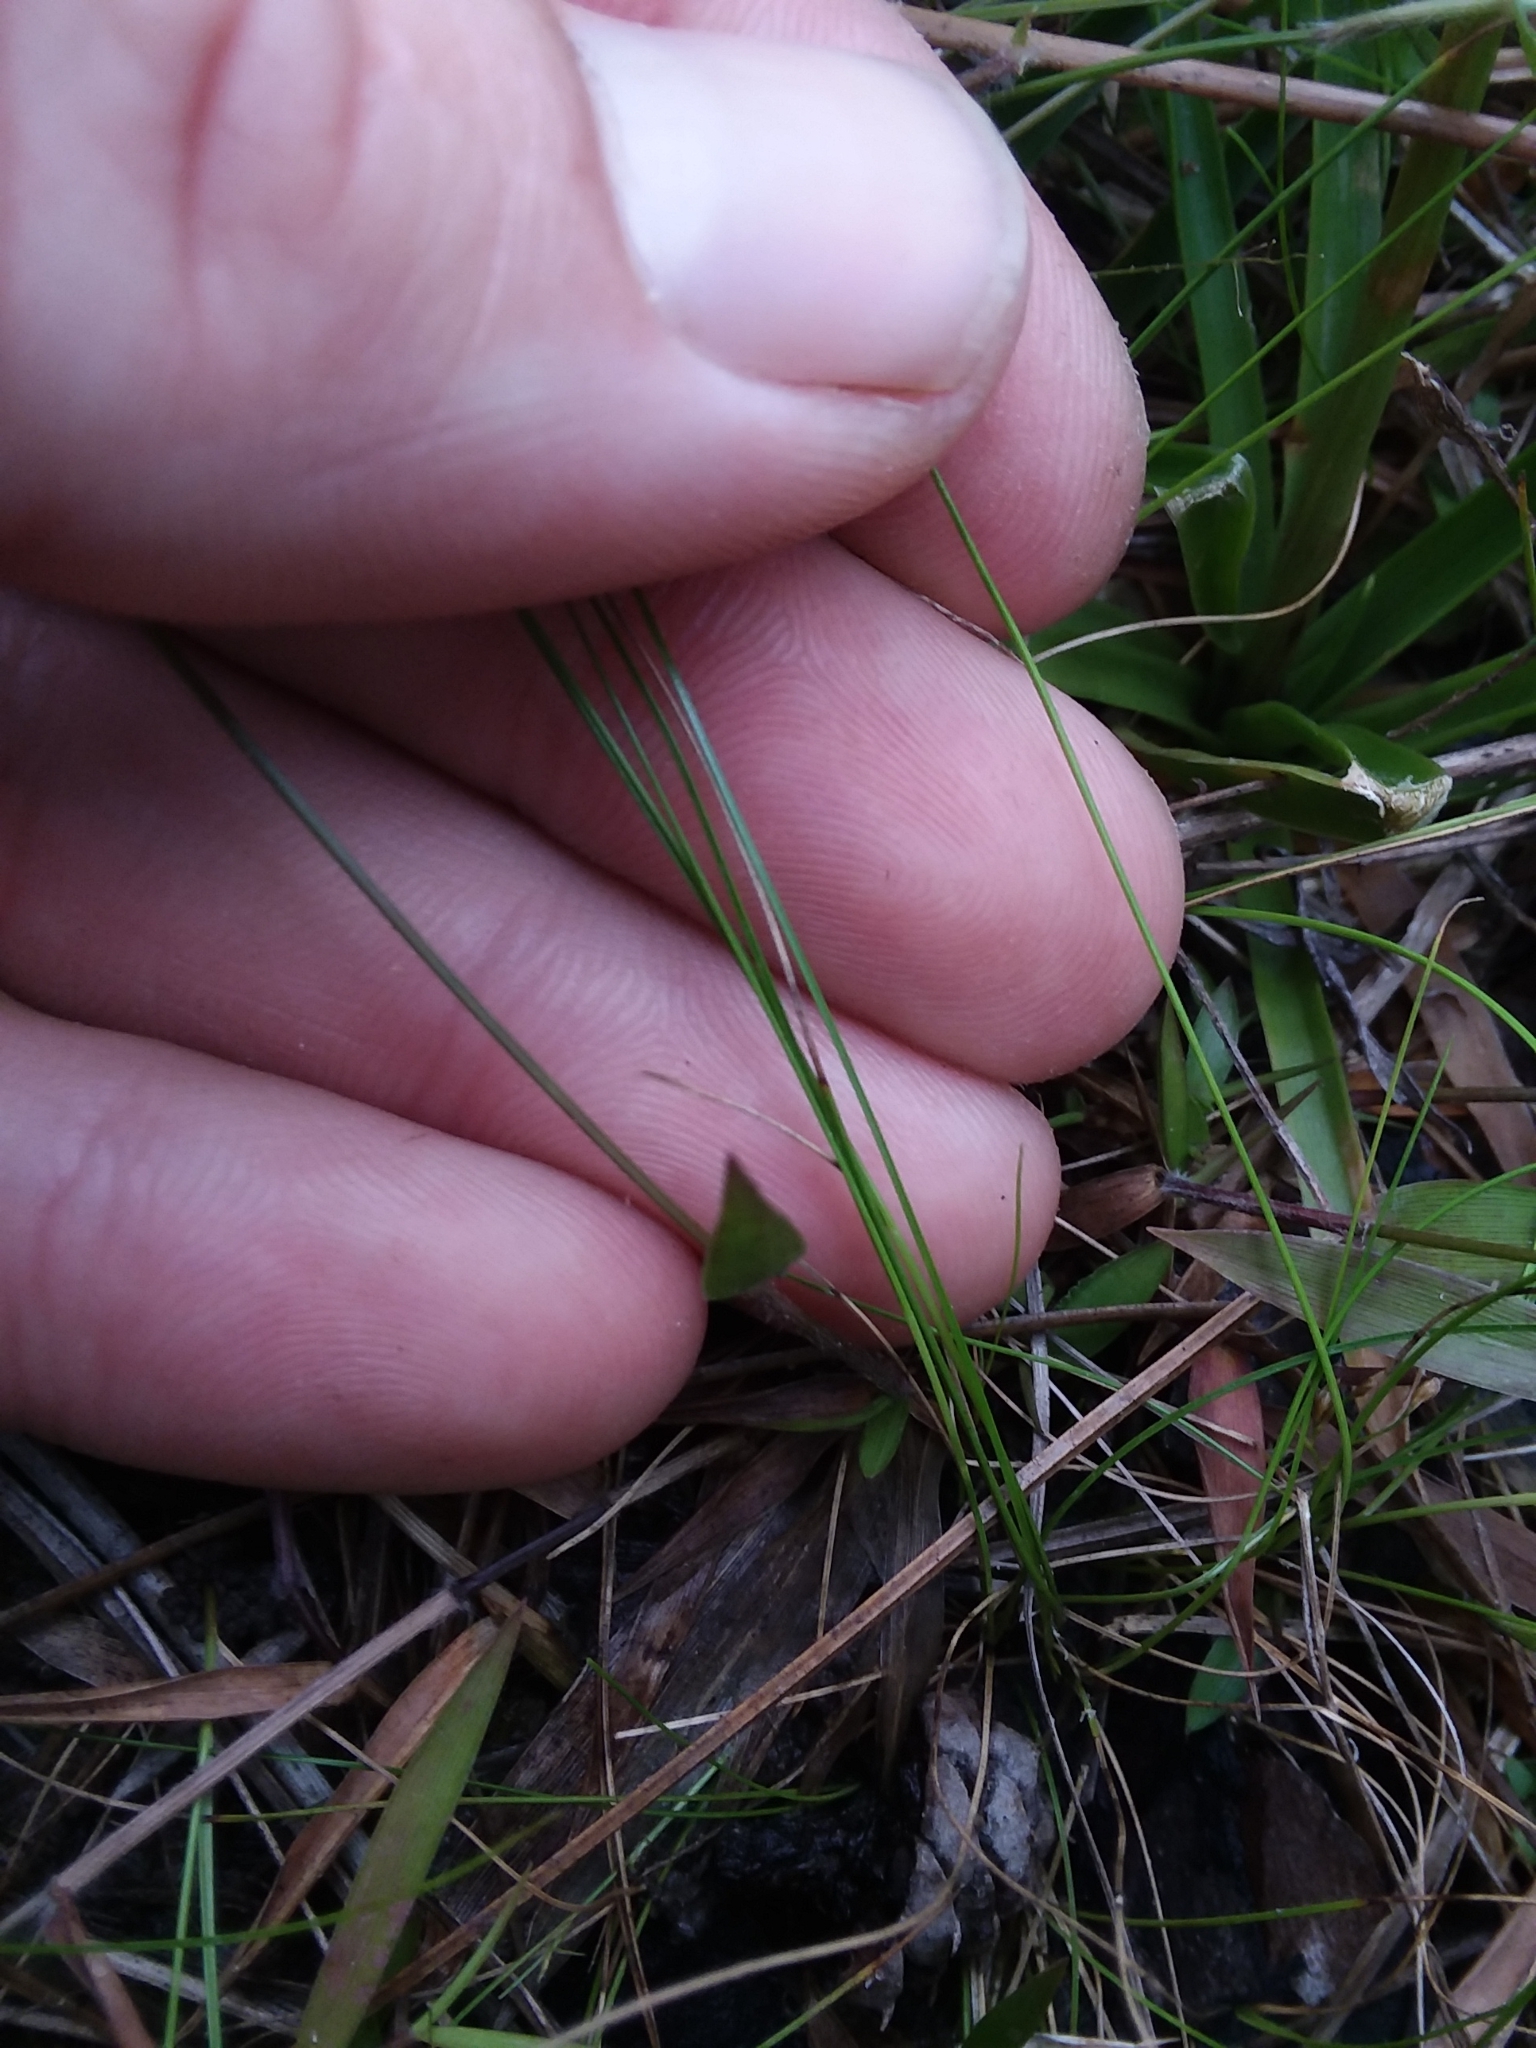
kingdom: Plantae
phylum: Tracheophyta
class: Liliopsida
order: Poales
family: Cyperaceae
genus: Rhynchospora
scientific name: Rhynchospora pusilla
